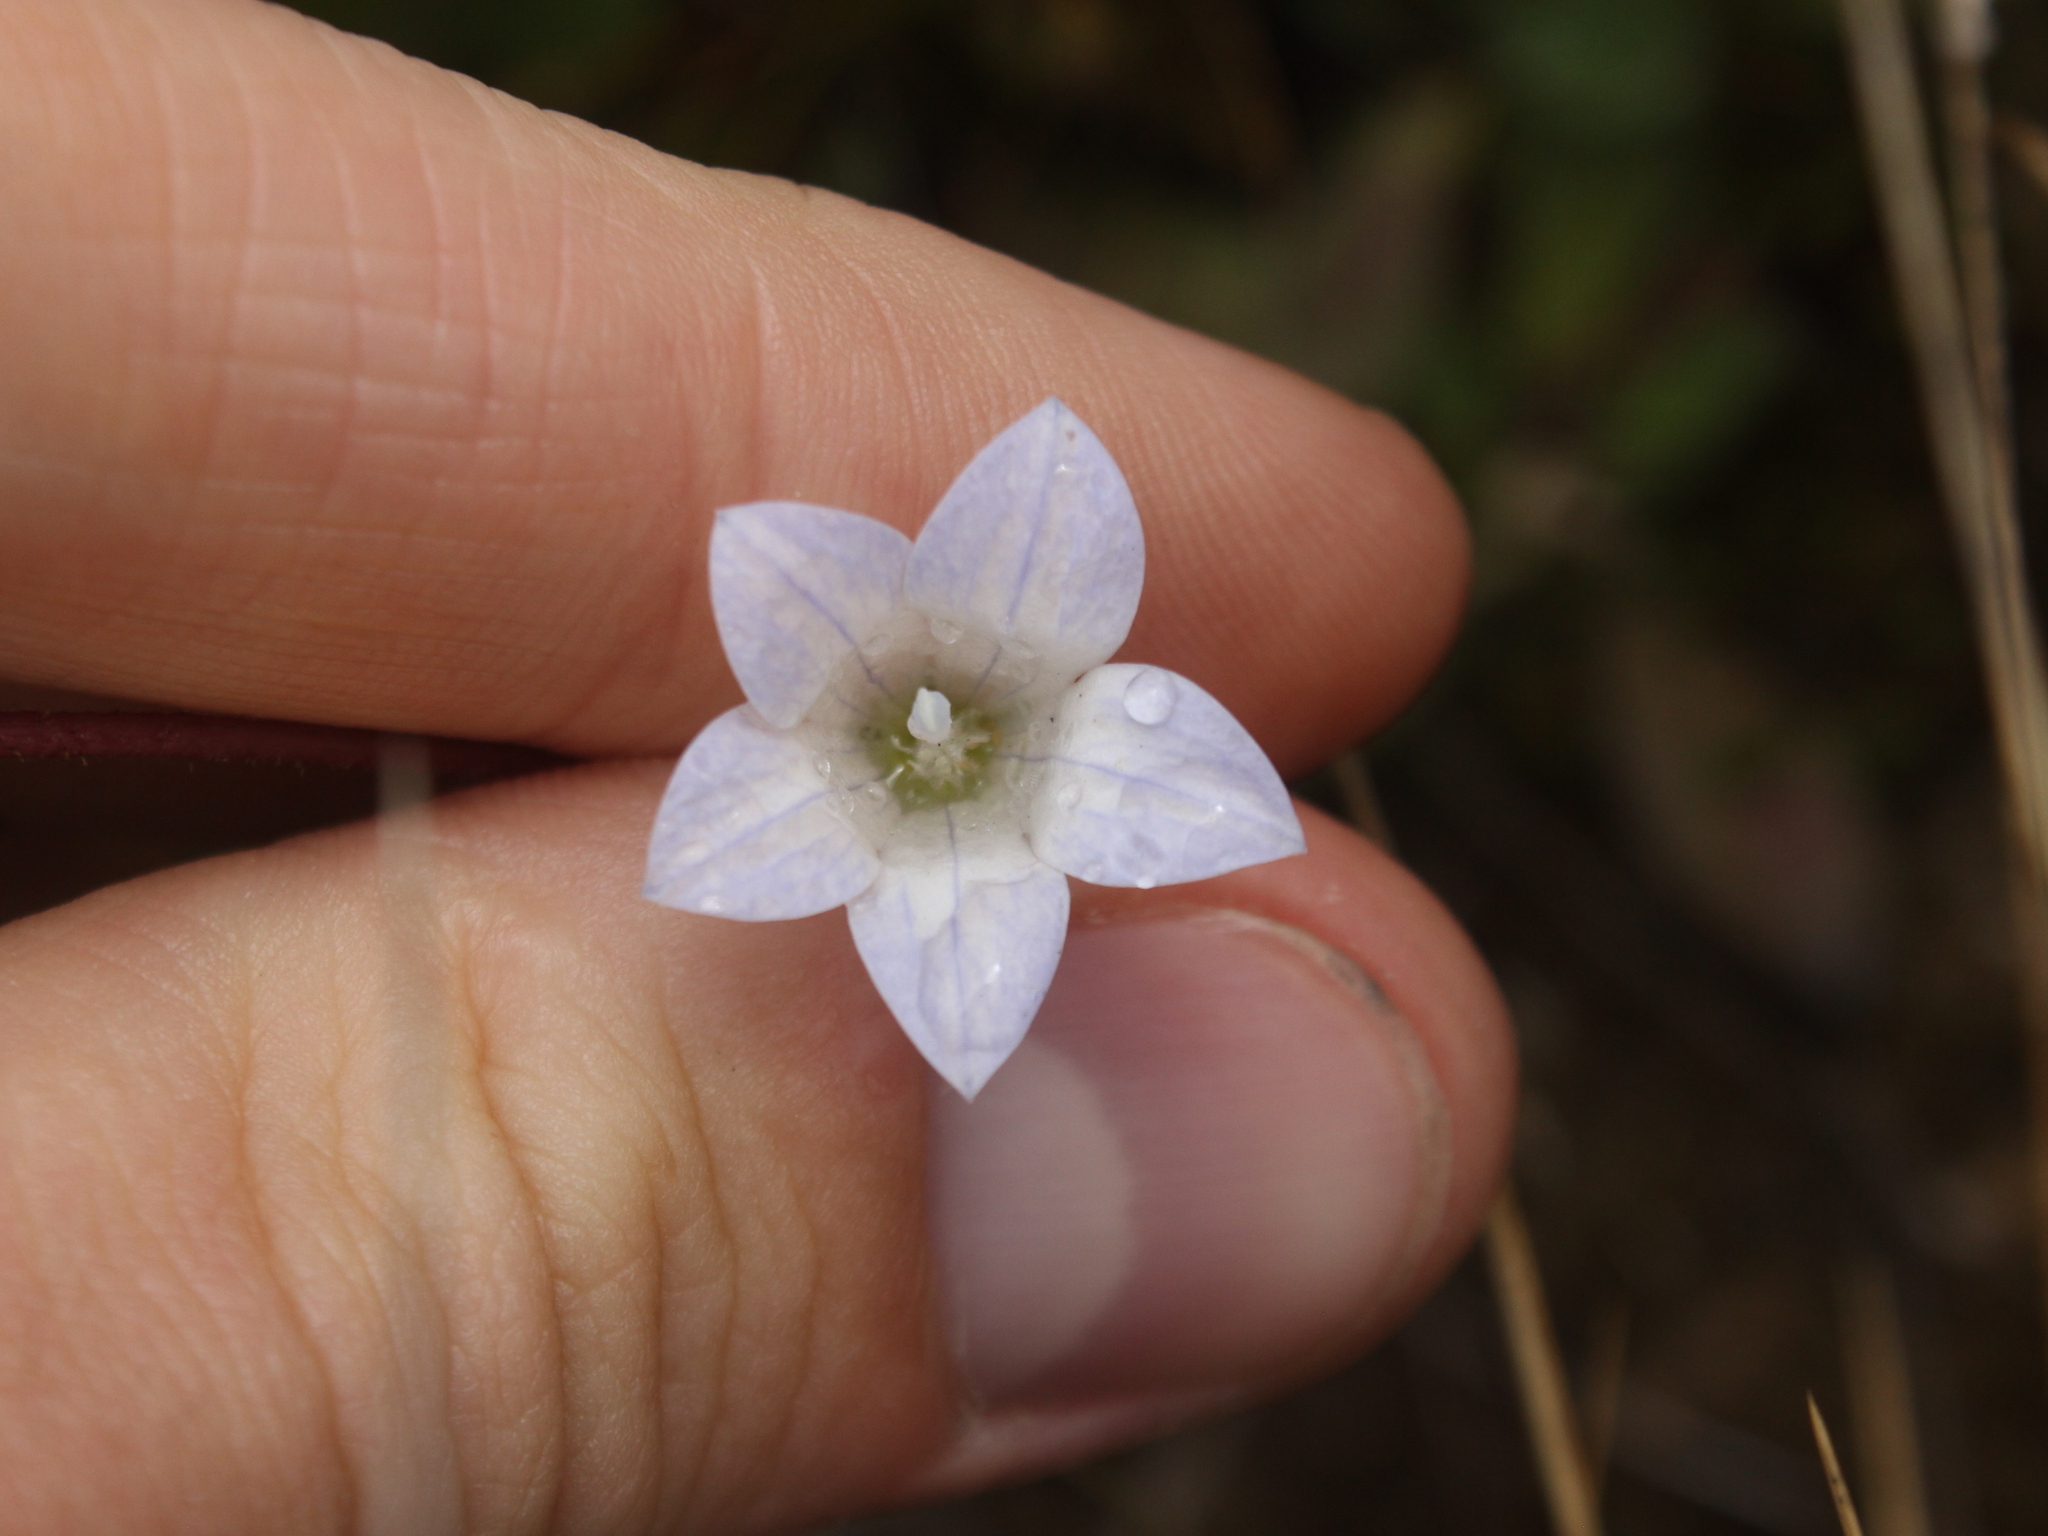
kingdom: Plantae
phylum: Tracheophyta
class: Magnoliopsida
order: Asterales
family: Campanulaceae
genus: Wahlenbergia
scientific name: Wahlenbergia pygmaea
